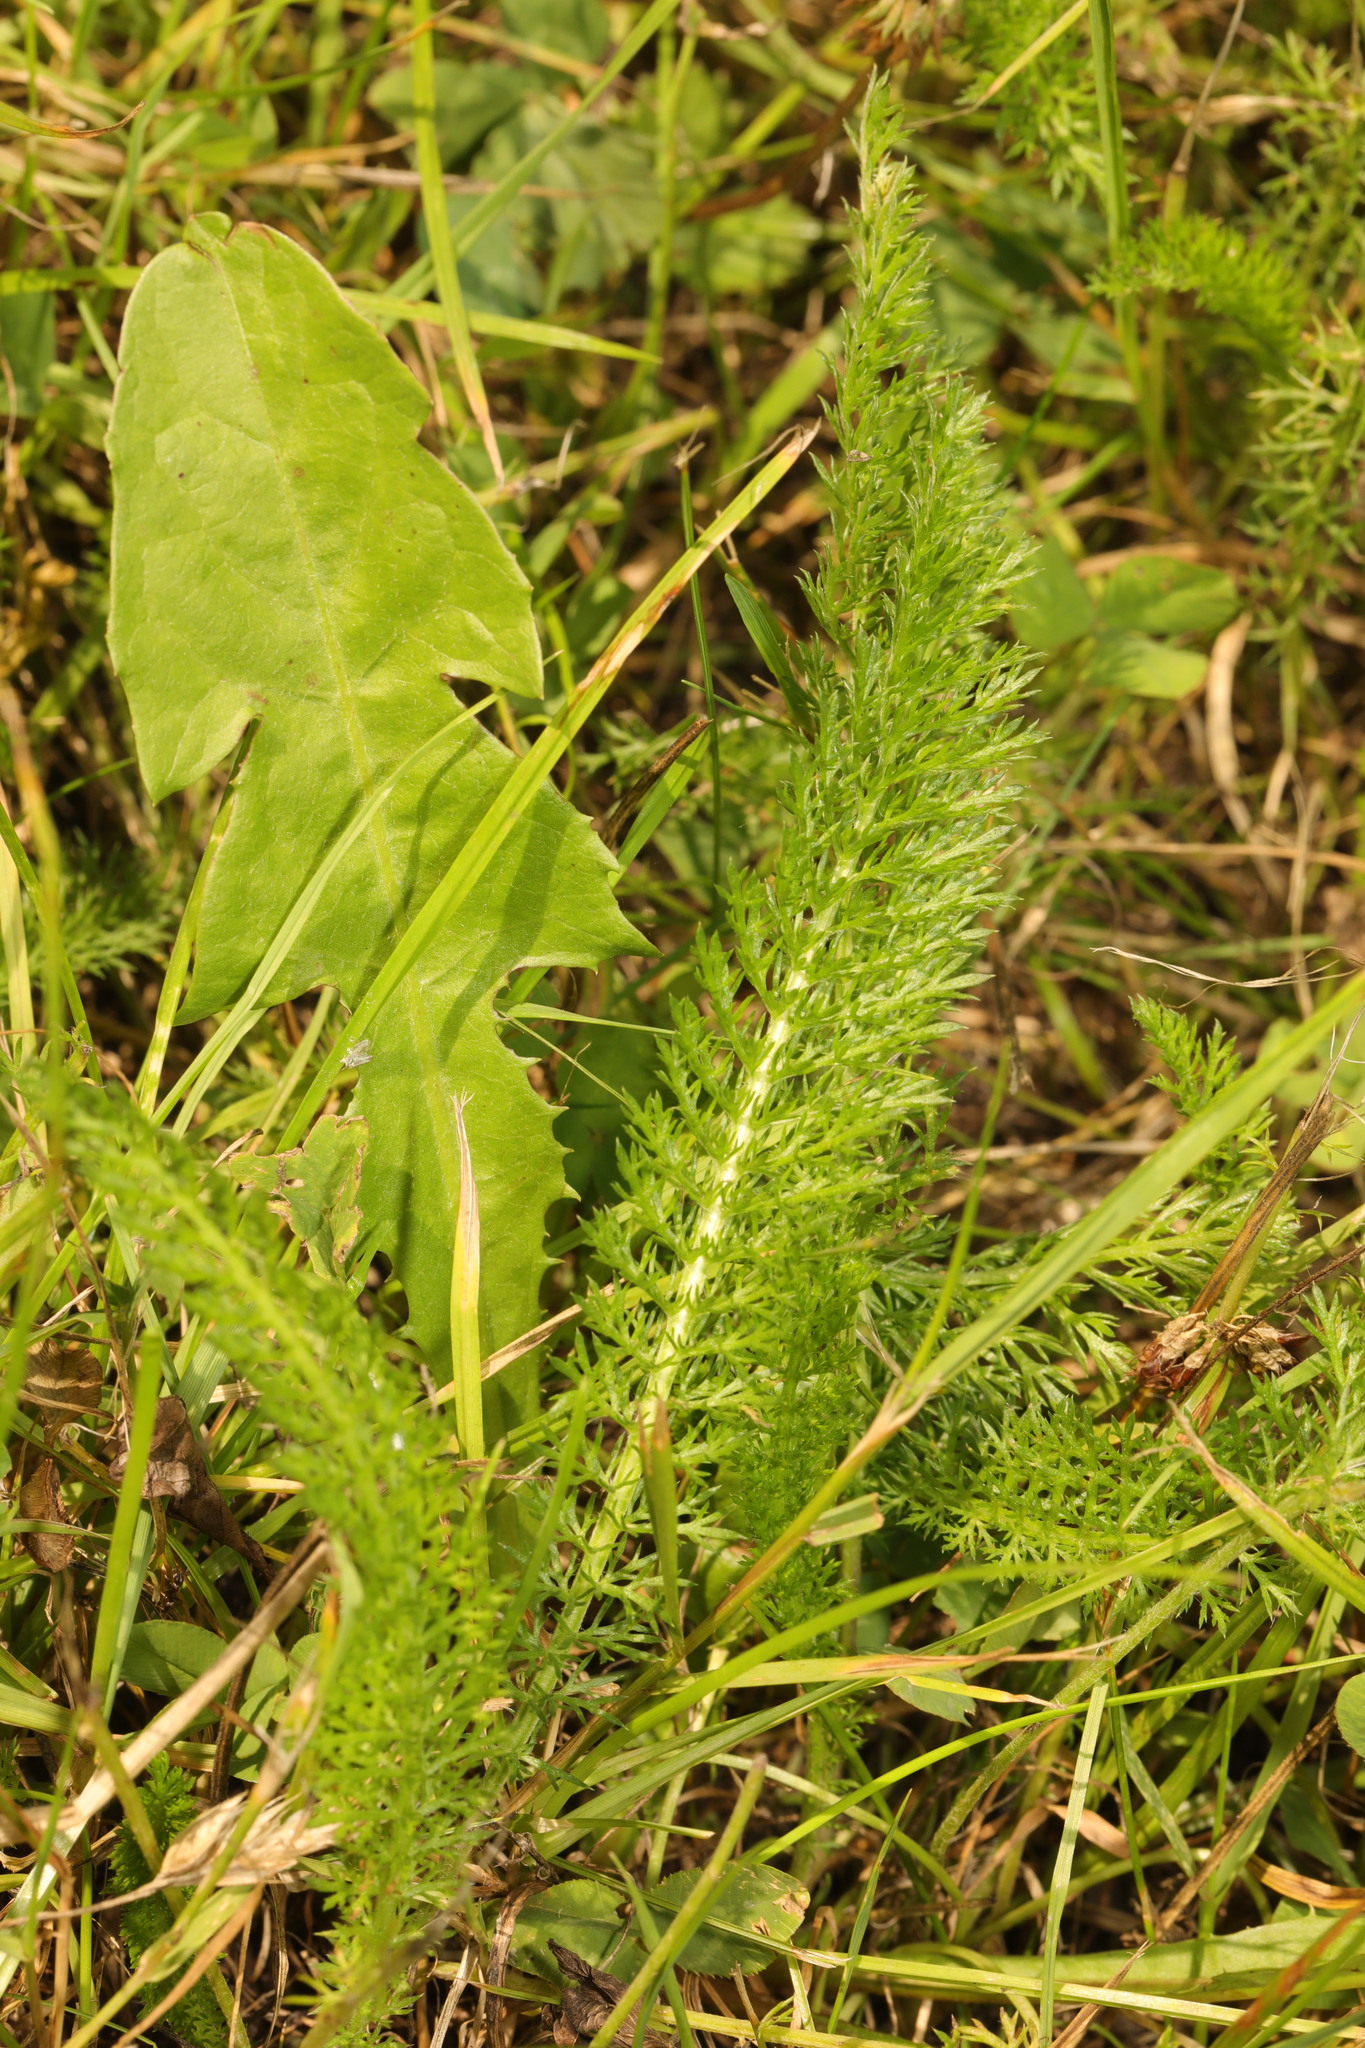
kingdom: Plantae
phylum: Tracheophyta
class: Magnoliopsida
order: Asterales
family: Asteraceae
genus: Achillea
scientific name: Achillea millefolium
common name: Yarrow
